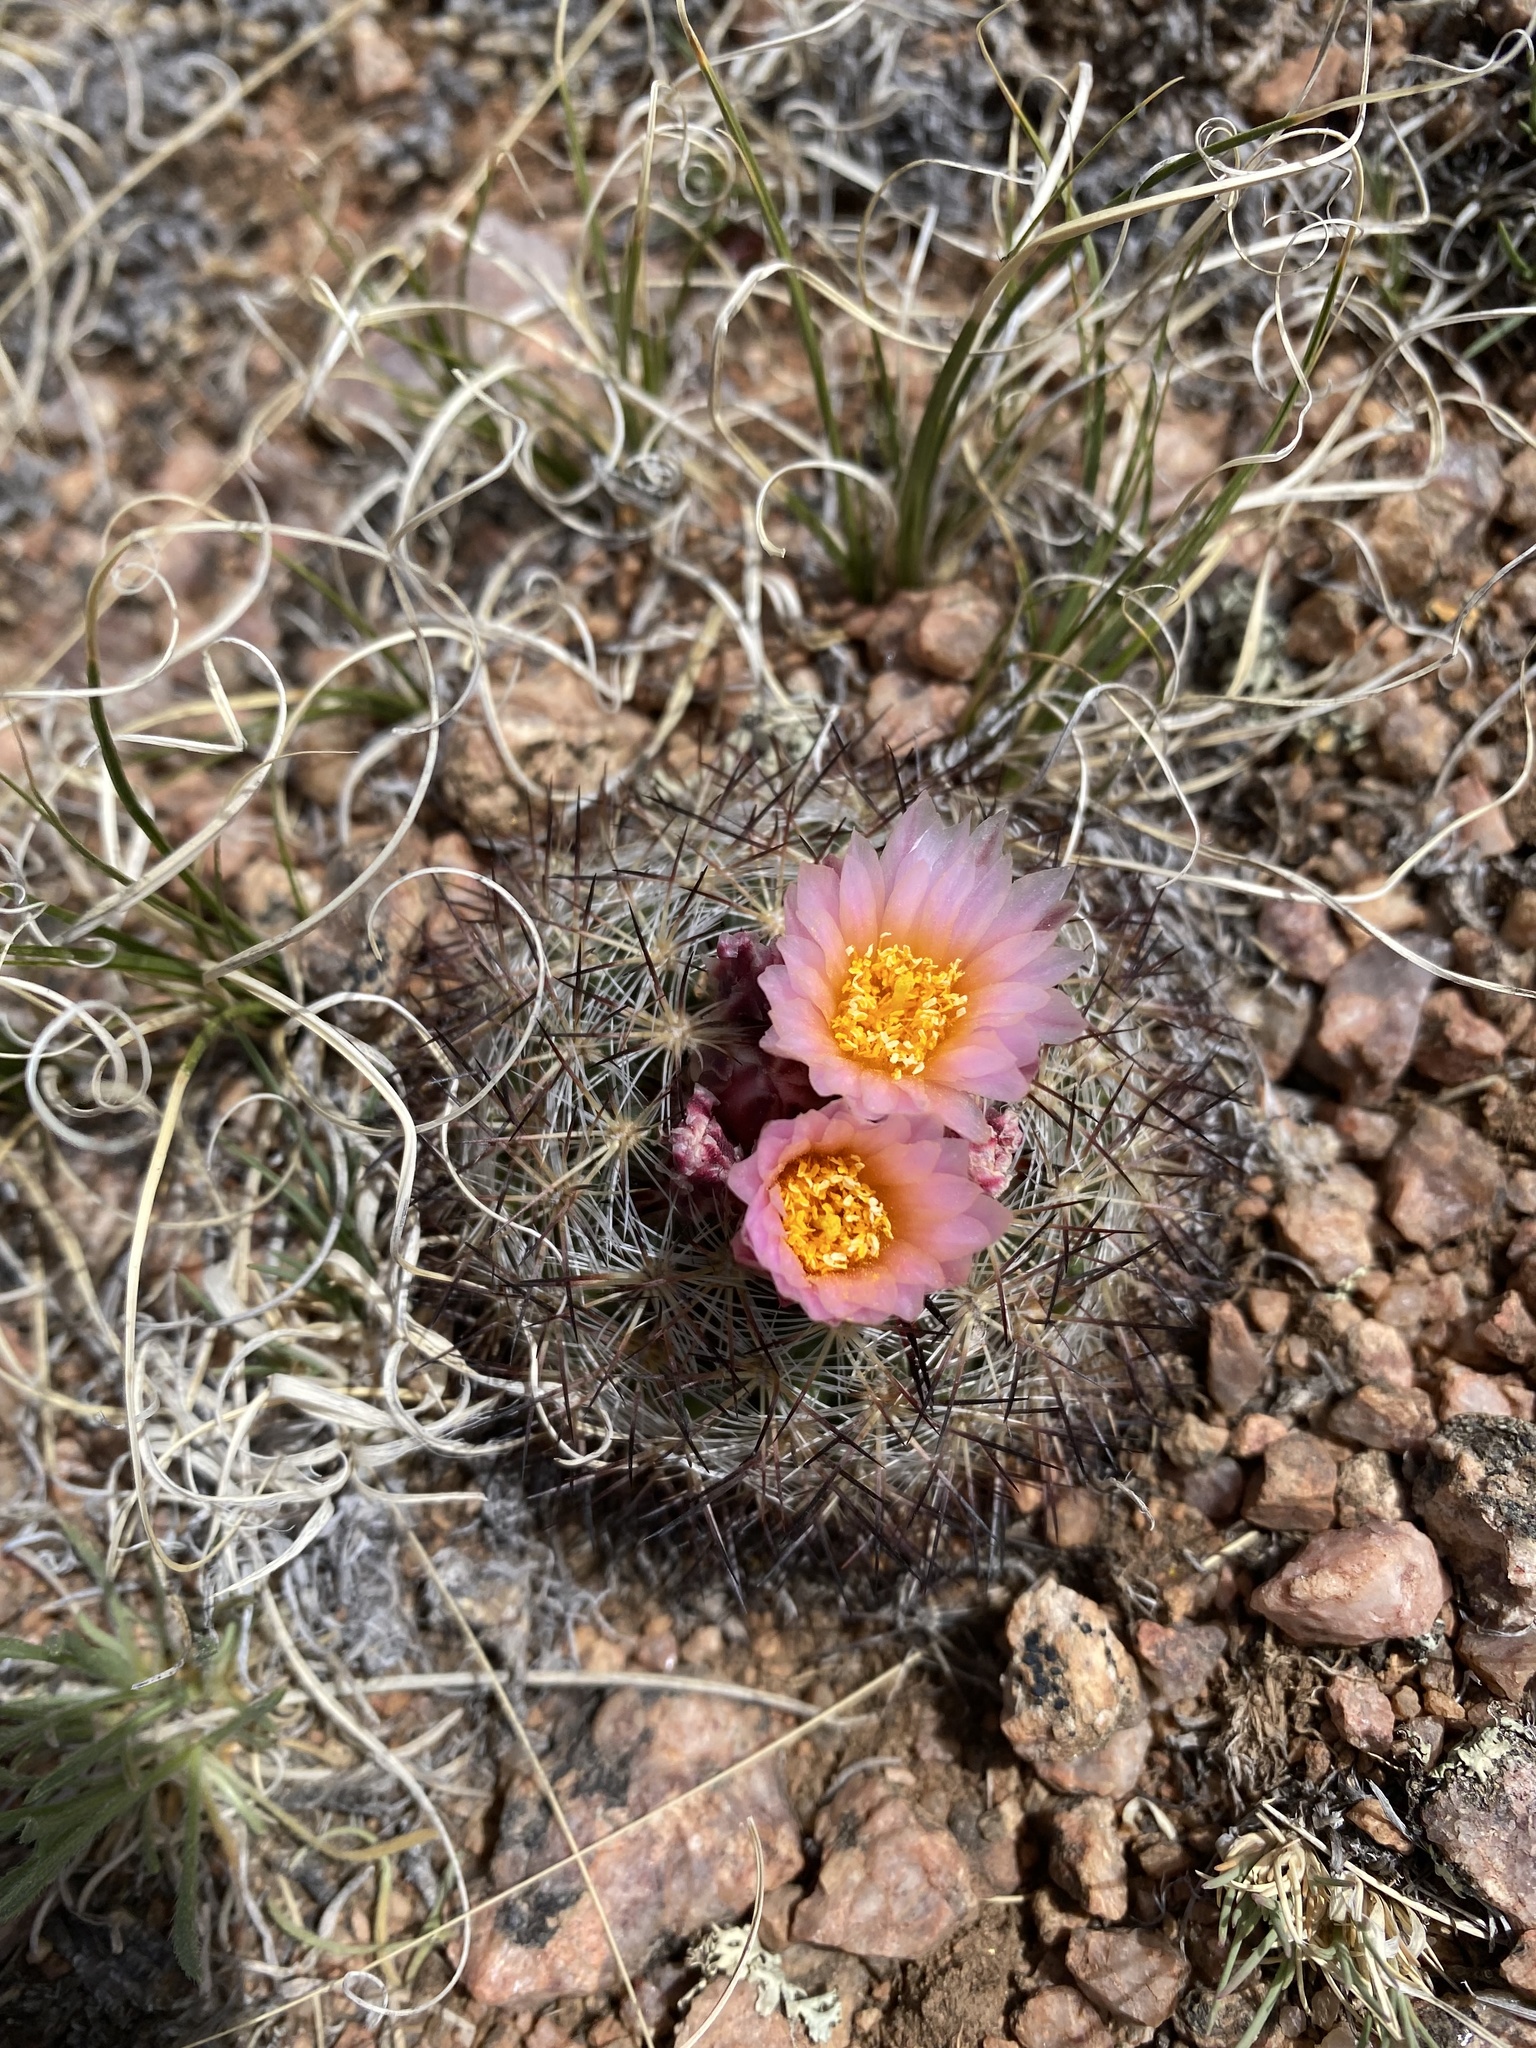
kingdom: Plantae
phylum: Tracheophyta
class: Magnoliopsida
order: Caryophyllales
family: Cactaceae
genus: Pediocactus
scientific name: Pediocactus simpsonii
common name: Simpson's hedgehog cactus
